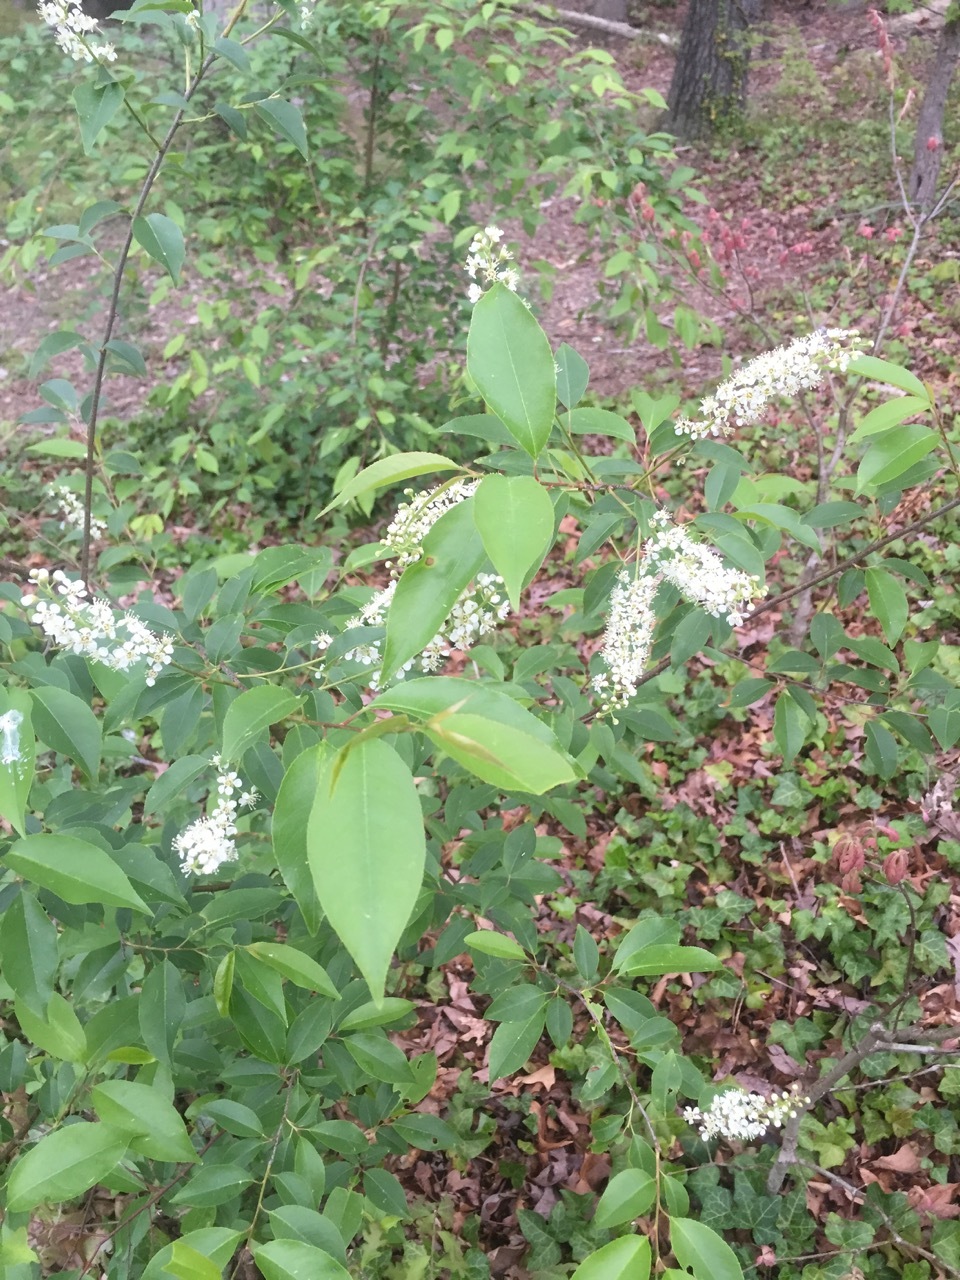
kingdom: Plantae
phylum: Tracheophyta
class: Magnoliopsida
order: Rosales
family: Rosaceae
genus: Prunus
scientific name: Prunus serotina
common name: Black cherry
